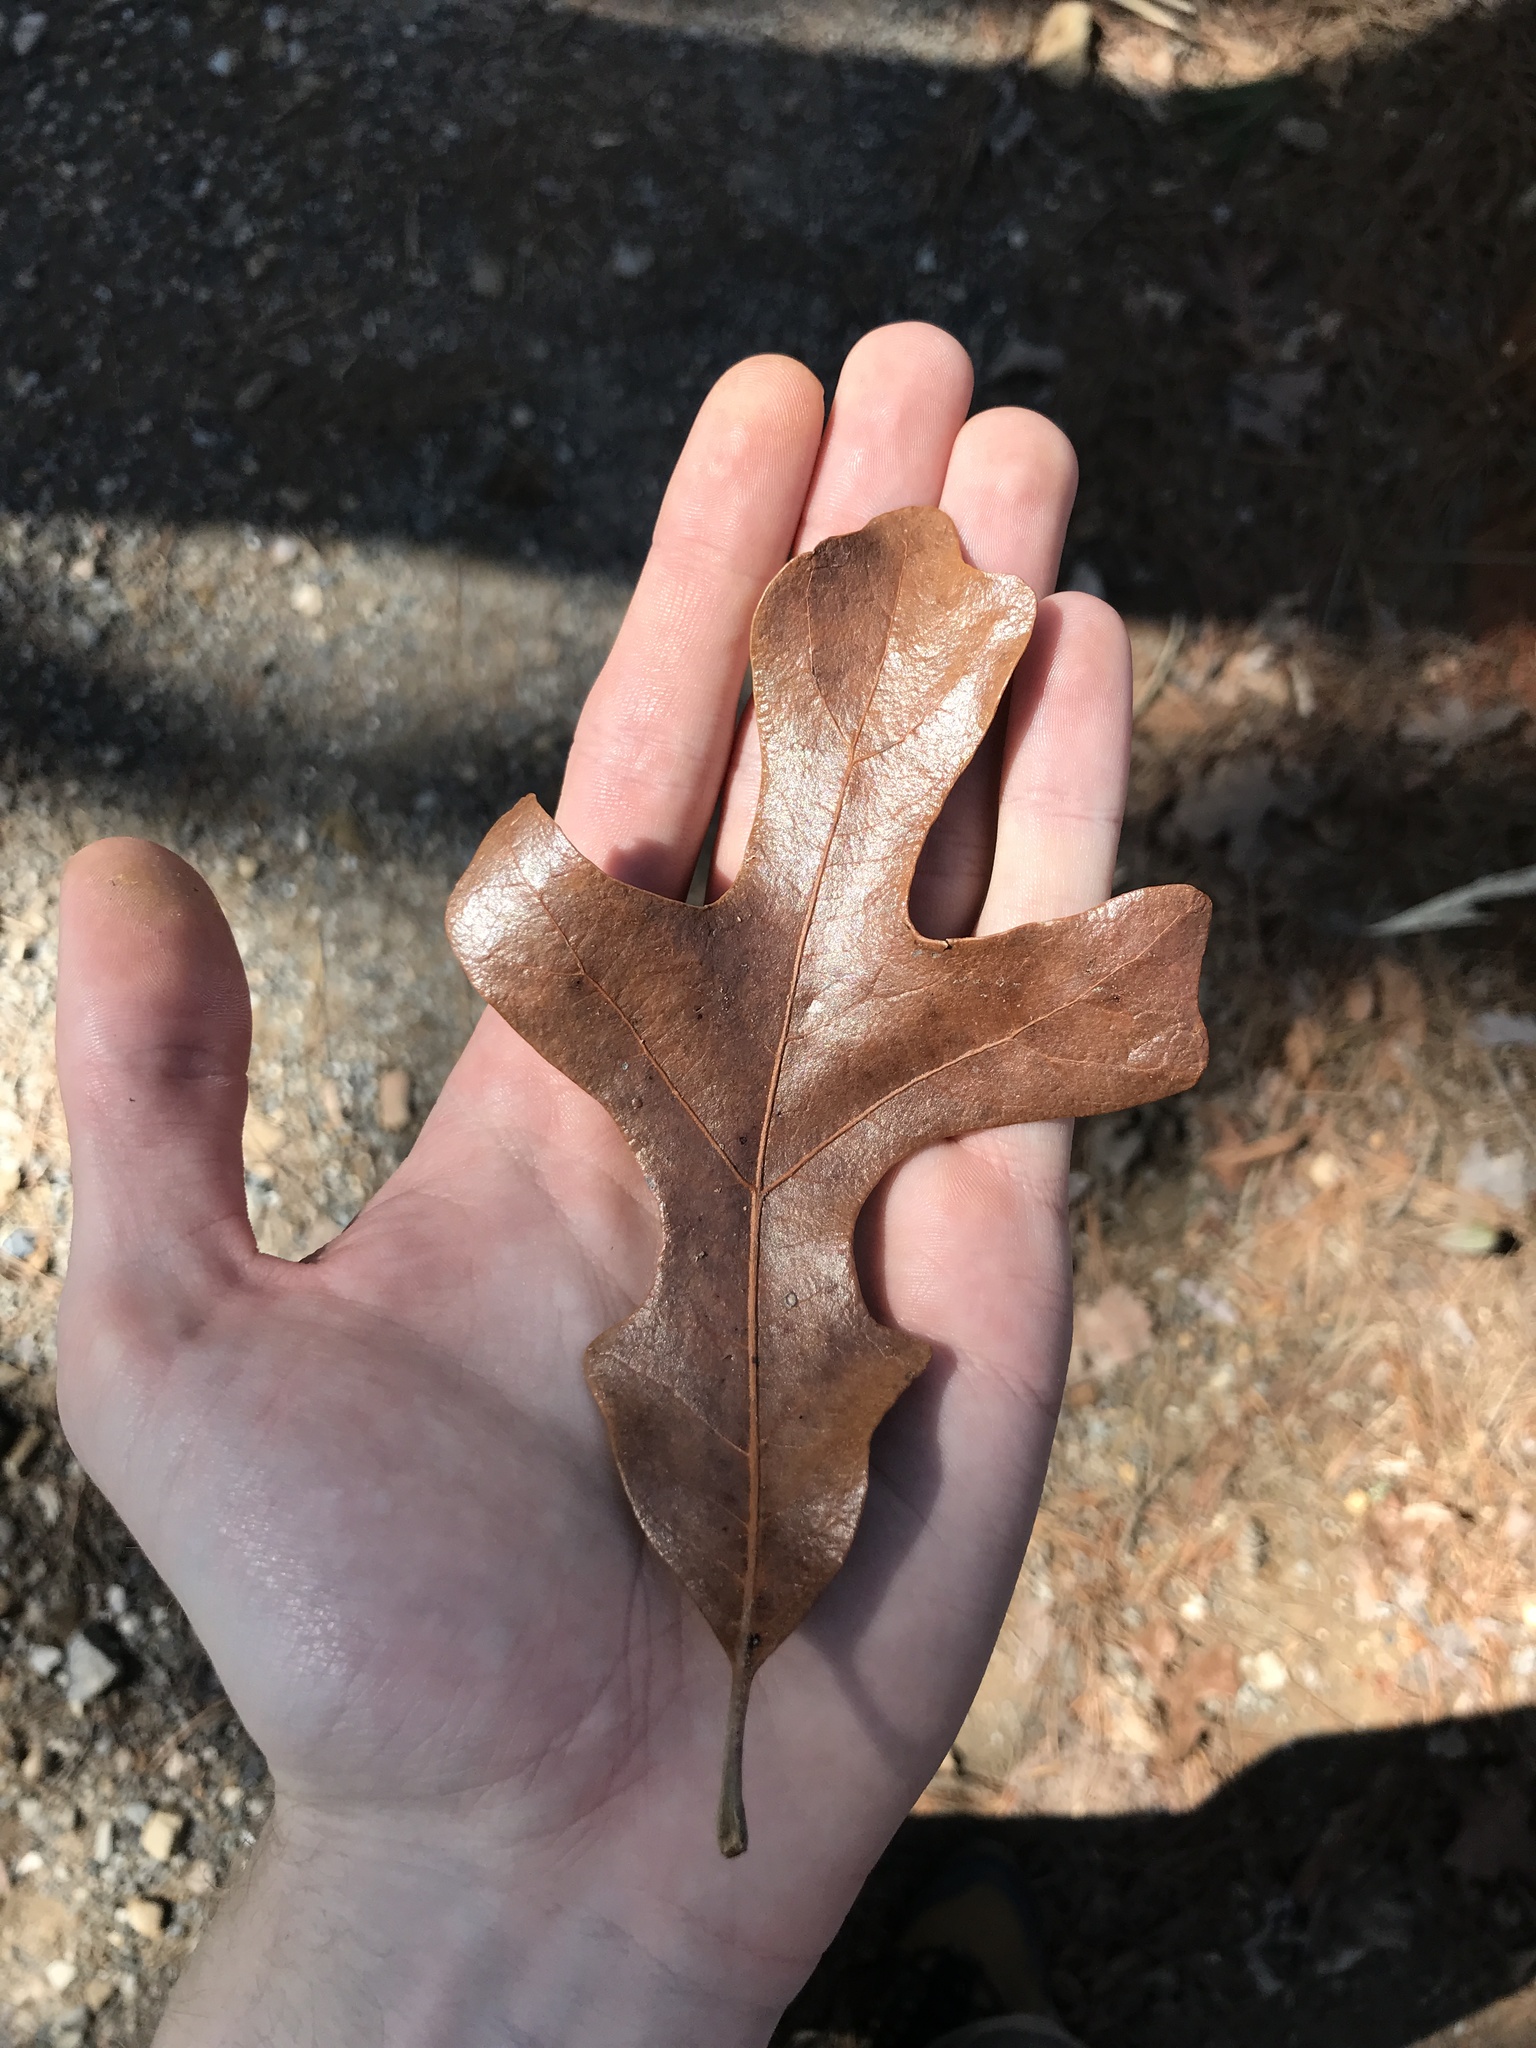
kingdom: Plantae
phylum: Tracheophyta
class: Magnoliopsida
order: Fagales
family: Fagaceae
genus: Quercus
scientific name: Quercus stellata
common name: Post oak
